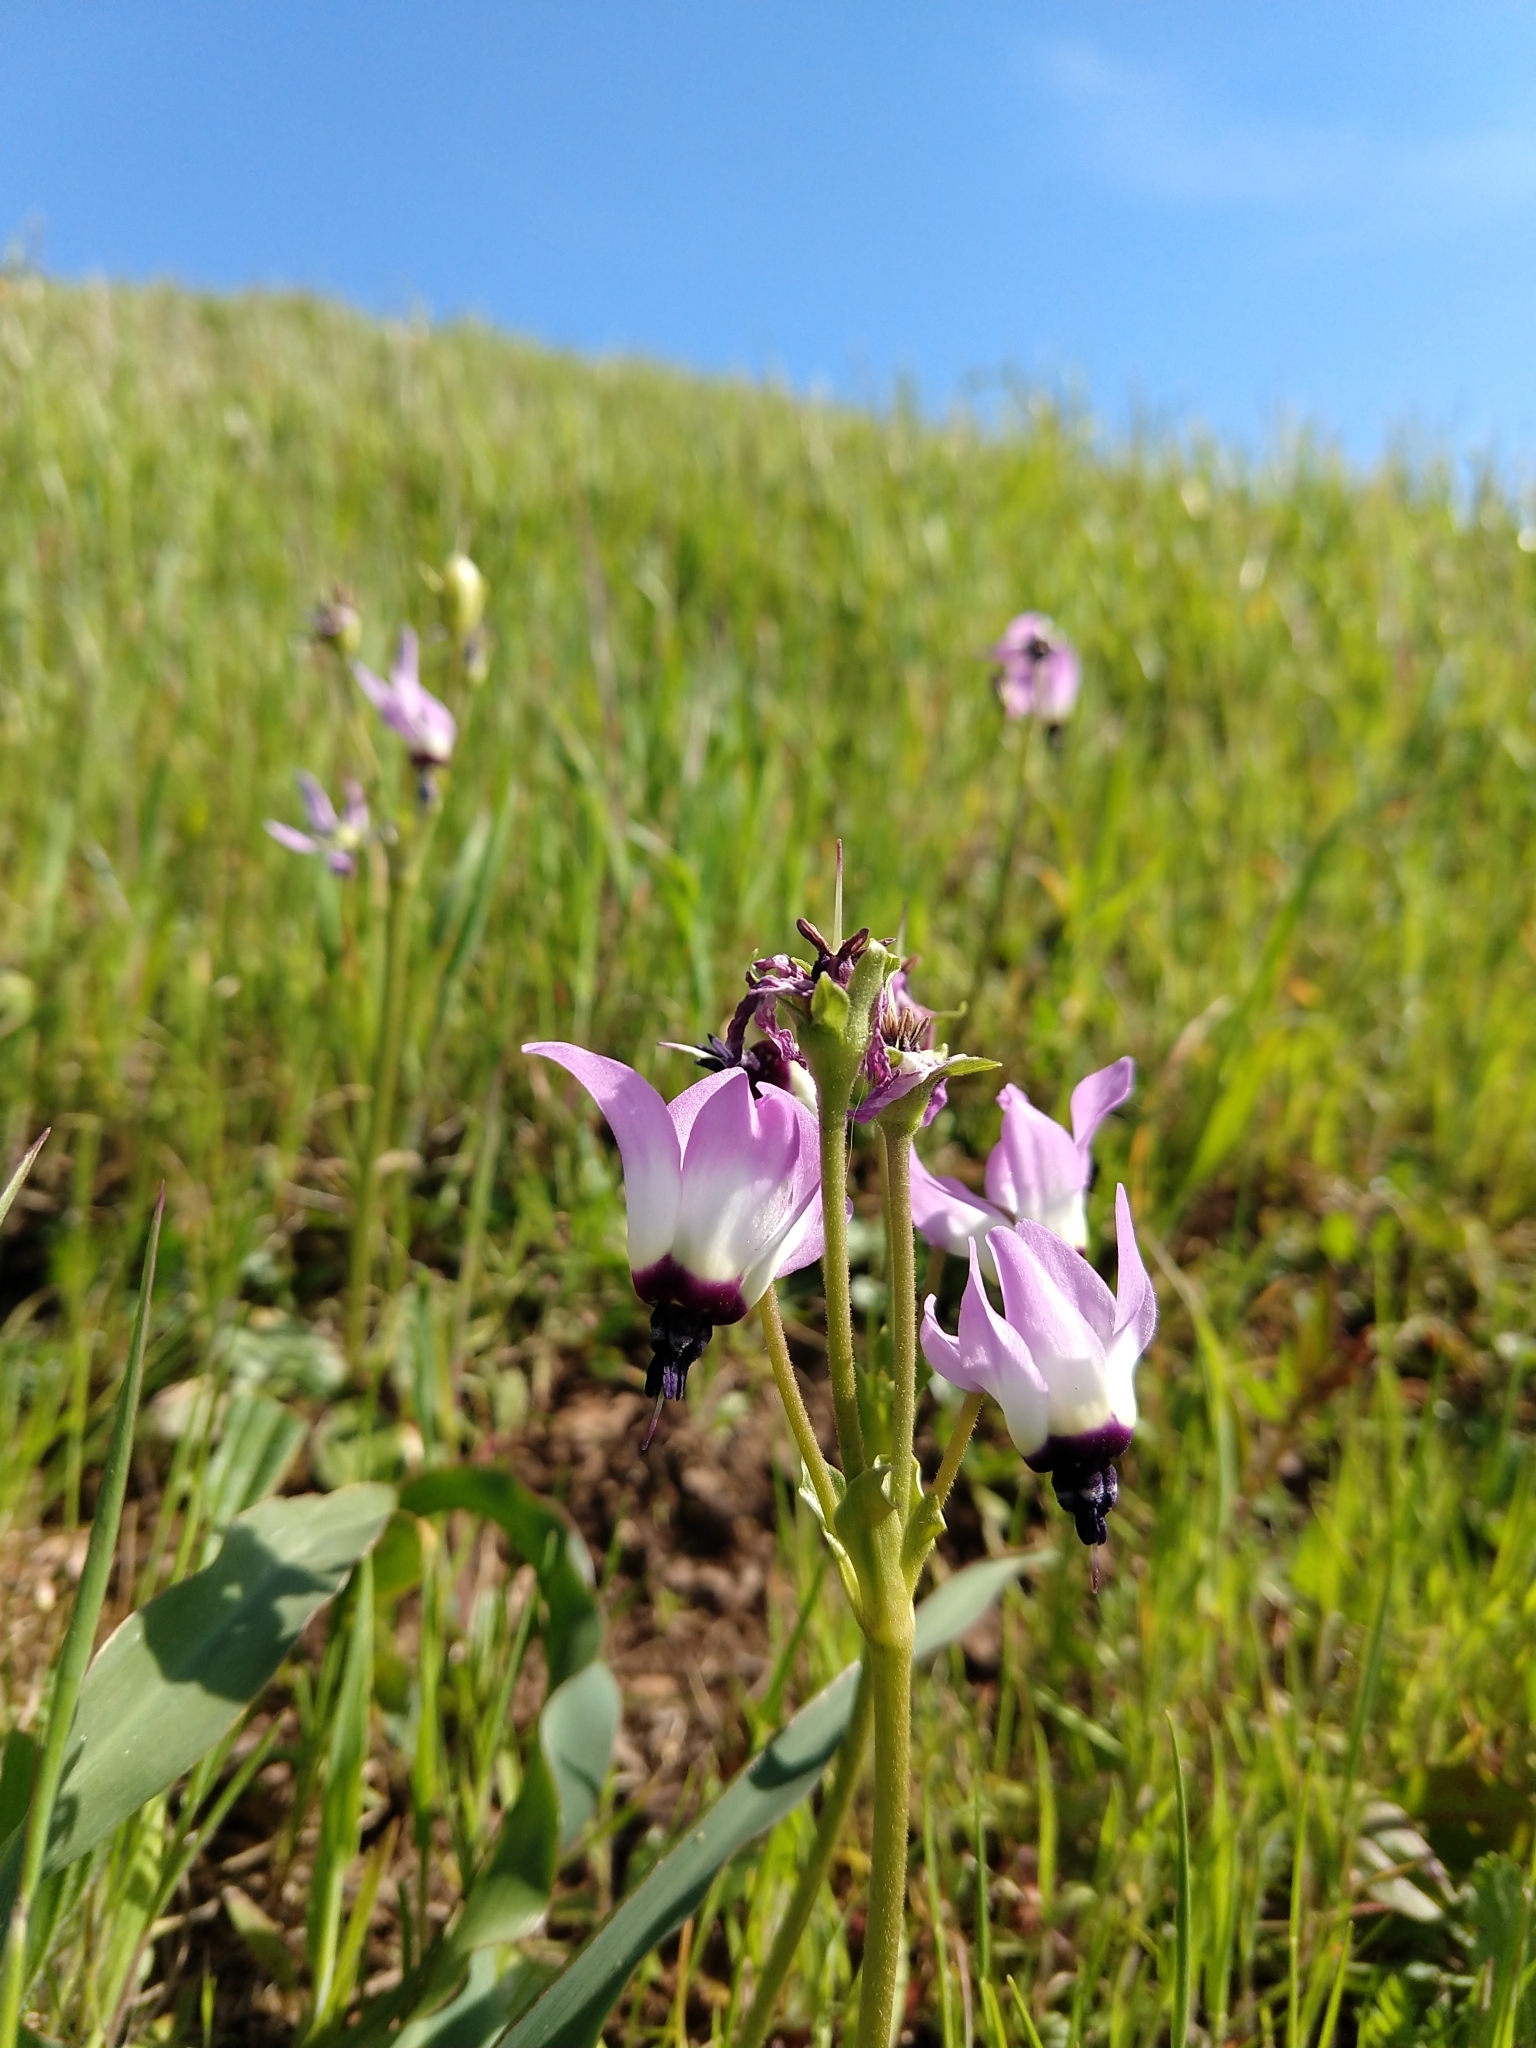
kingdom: Plantae
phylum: Tracheophyta
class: Magnoliopsida
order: Ericales
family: Primulaceae
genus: Dodecatheon
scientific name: Dodecatheon clevelandii
